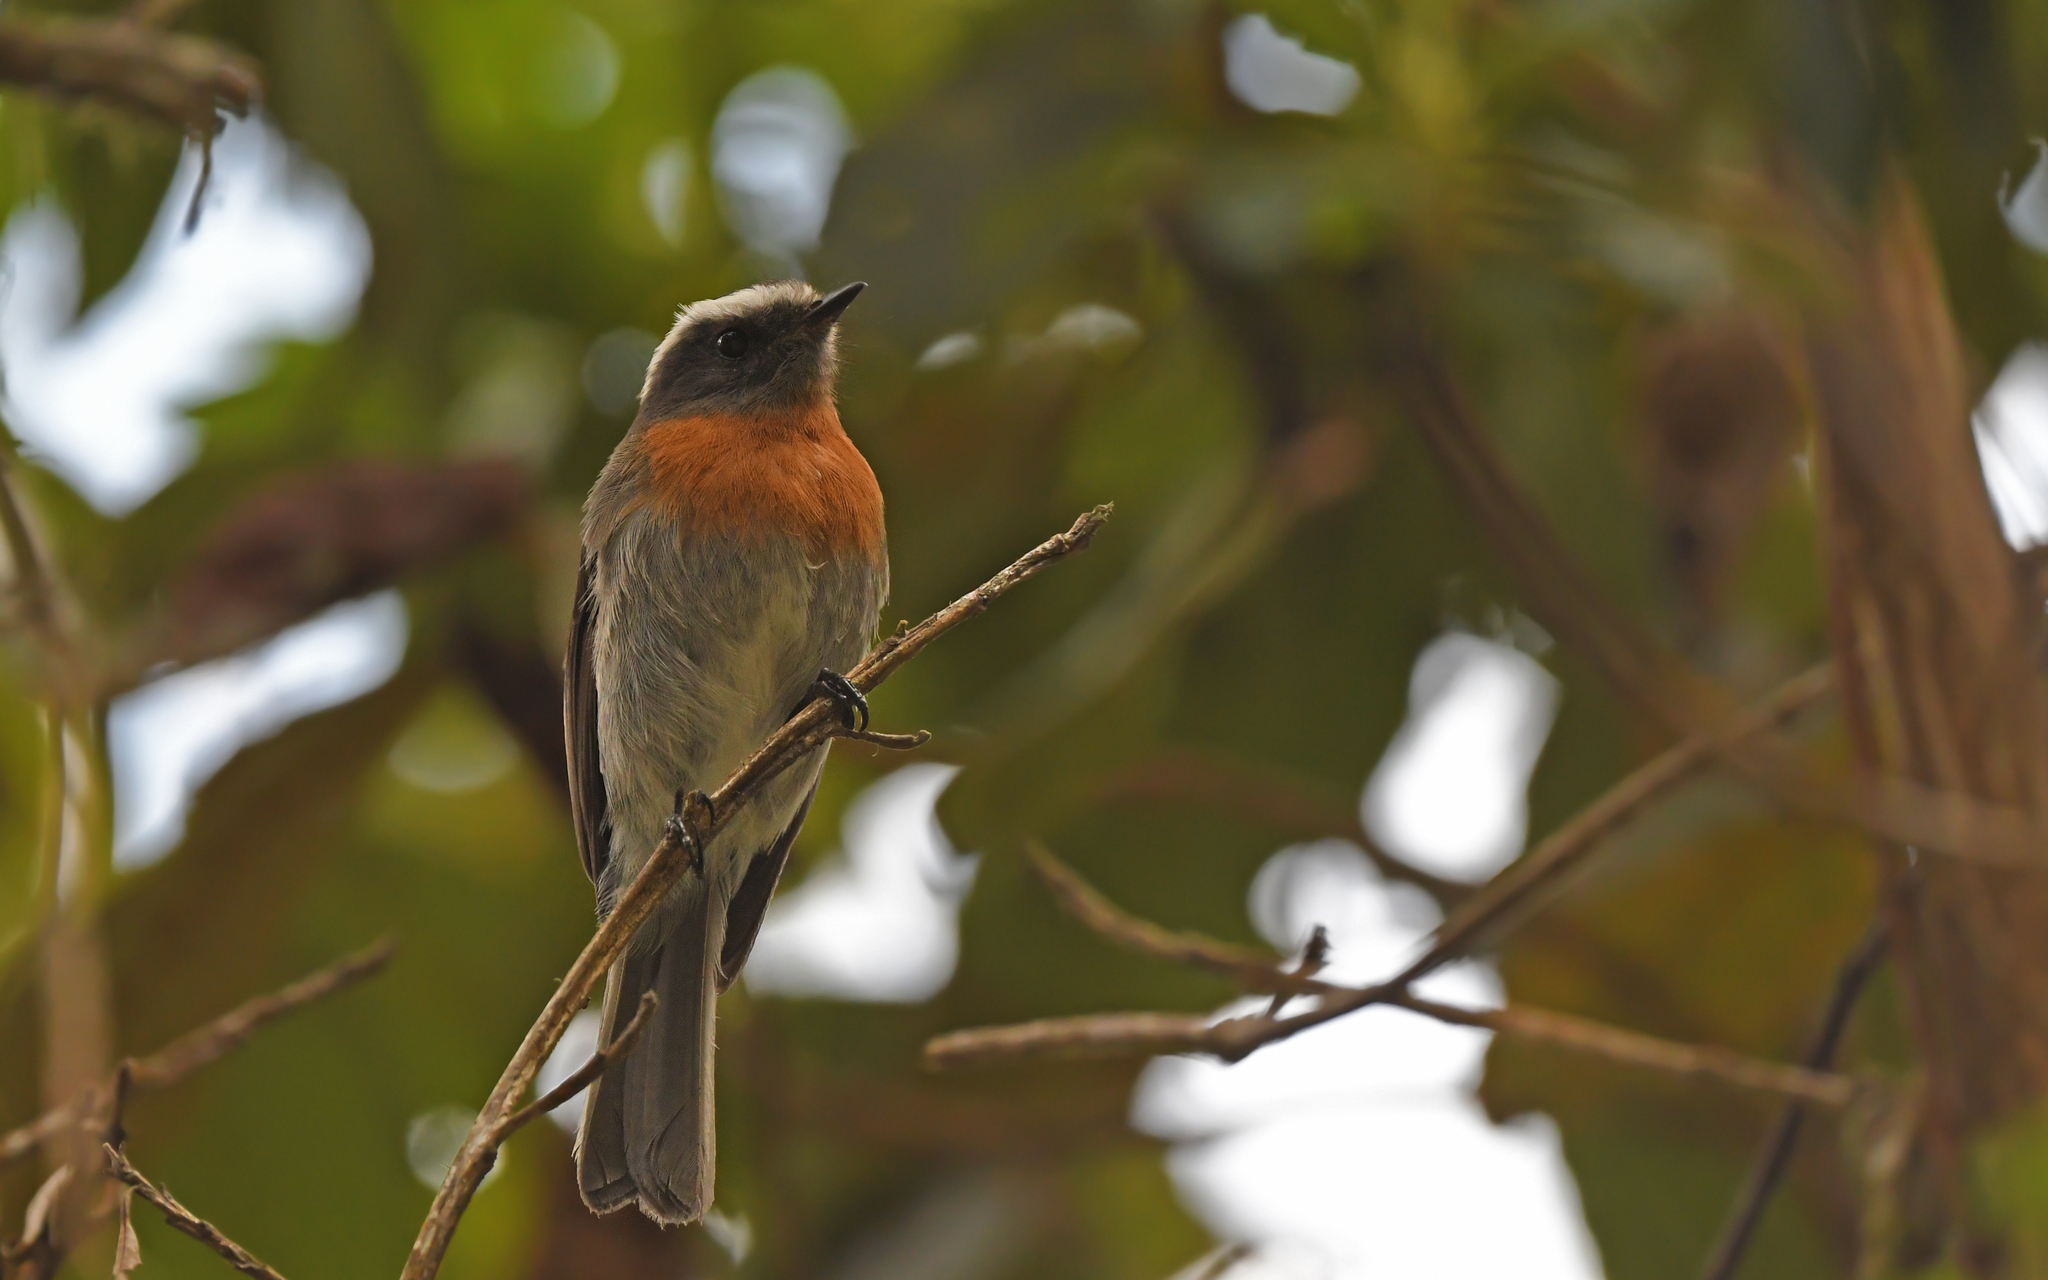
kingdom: Animalia
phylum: Chordata
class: Aves
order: Passeriformes
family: Tyrannidae
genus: Ochthoeca
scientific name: Ochthoeca rufipectoralis
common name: Rufous-breasted chat-tyrant
